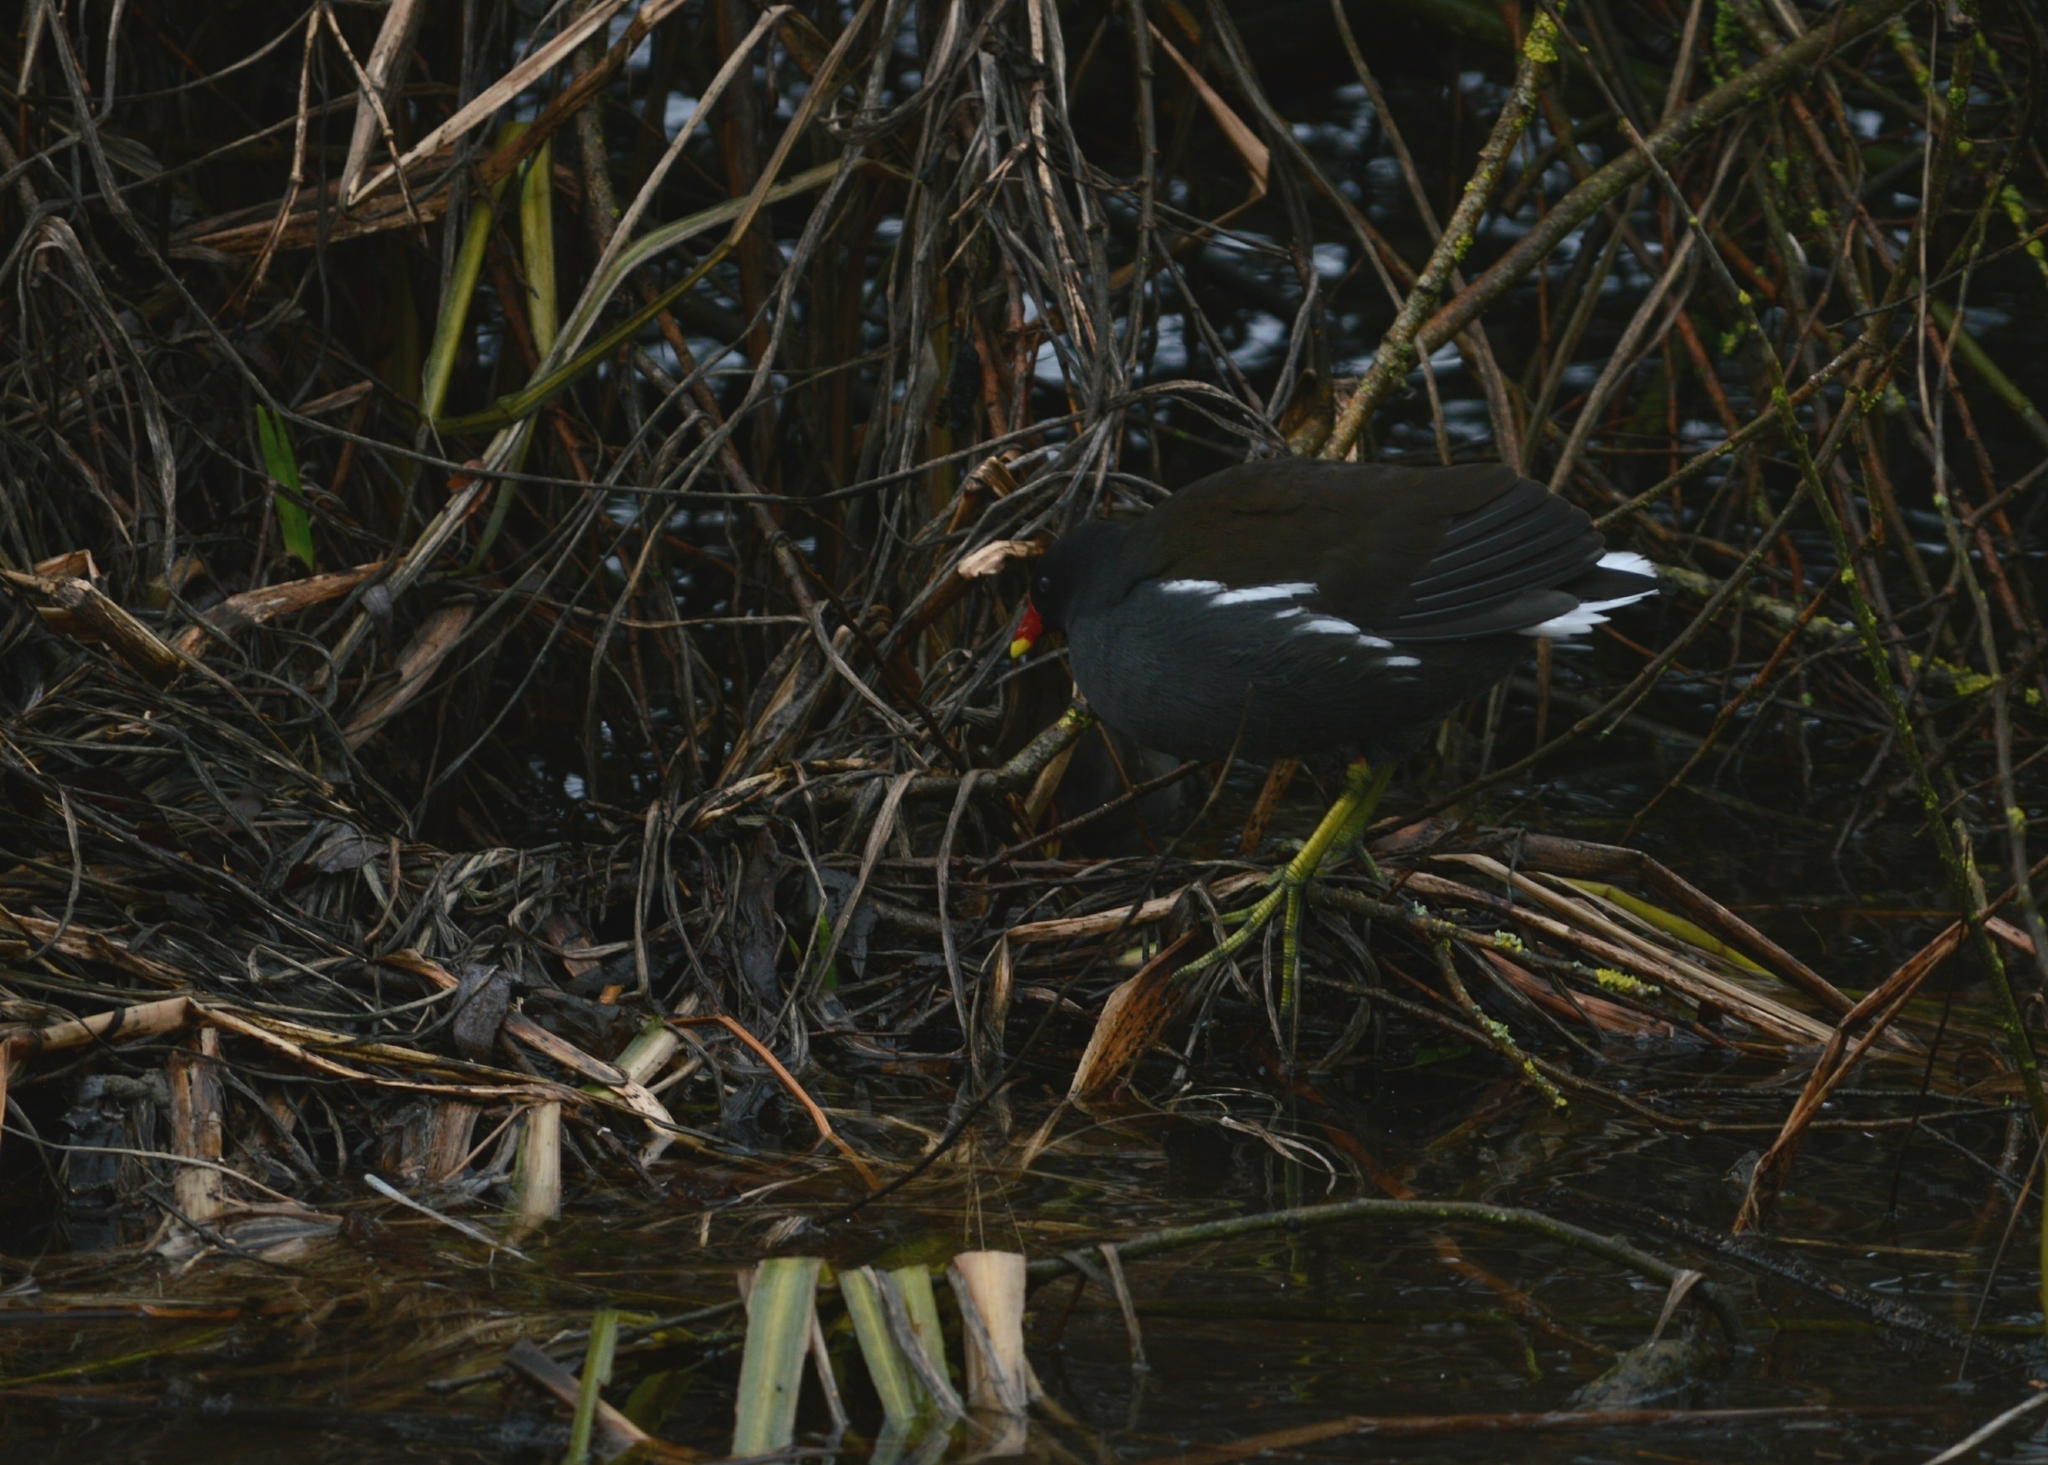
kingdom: Animalia
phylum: Chordata
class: Aves
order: Gruiformes
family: Rallidae
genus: Gallinula
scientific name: Gallinula chloropus
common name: Common moorhen
